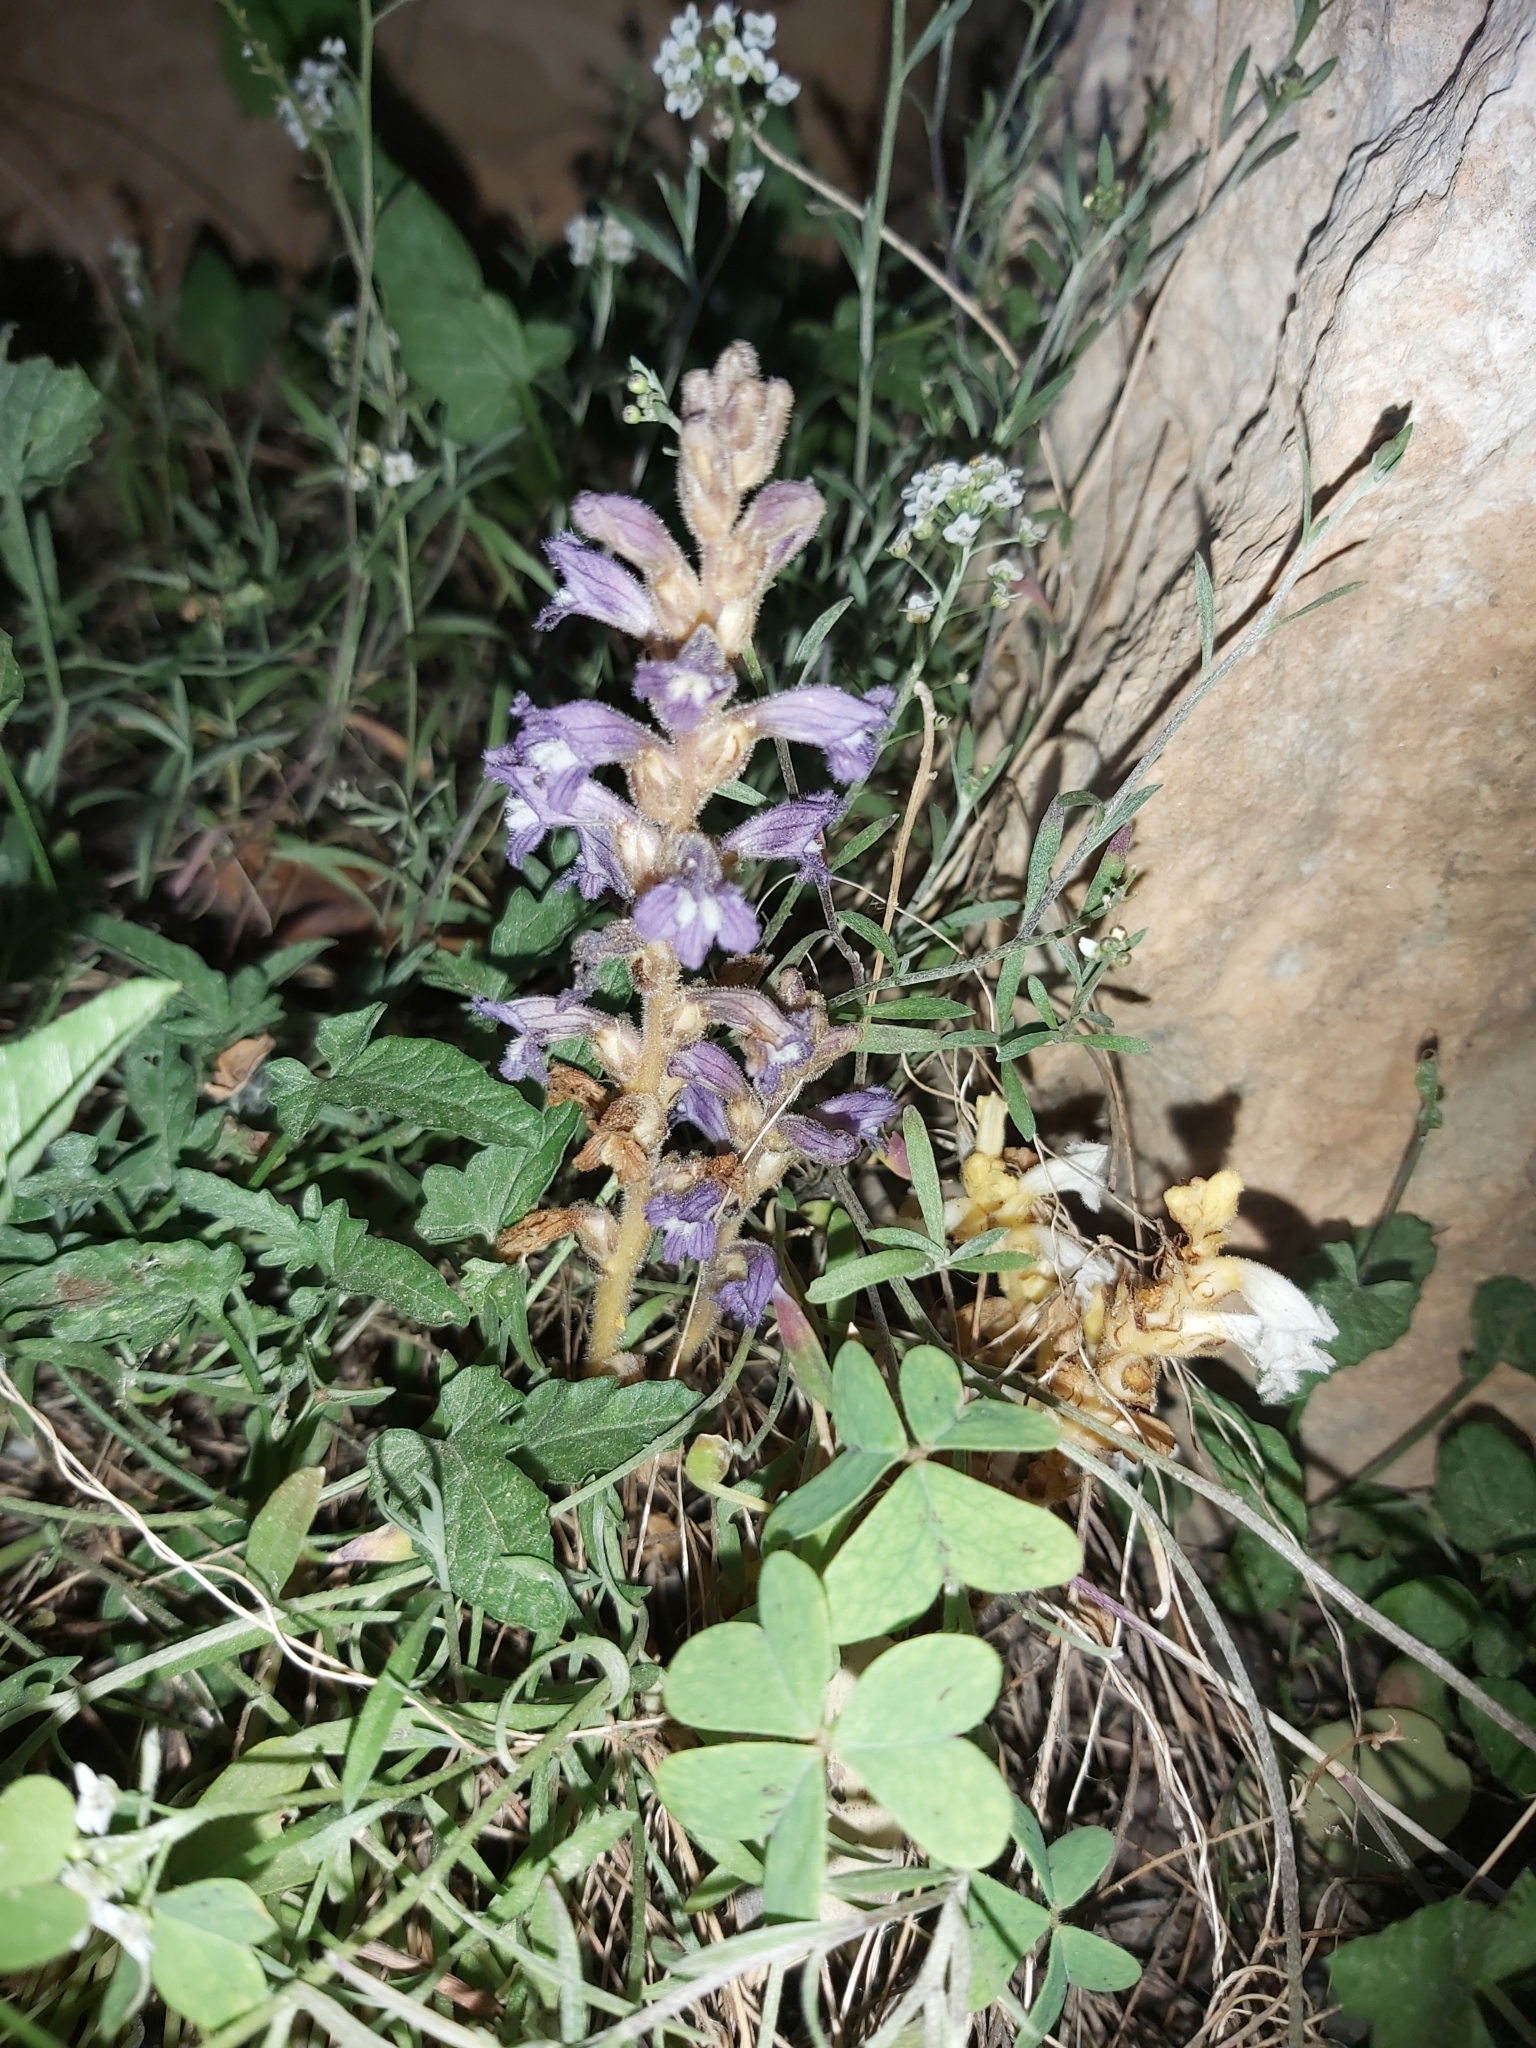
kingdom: Plantae
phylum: Tracheophyta
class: Magnoliopsida
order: Lamiales
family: Orobanchaceae
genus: Phelipanche
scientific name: Phelipanche mutelii
